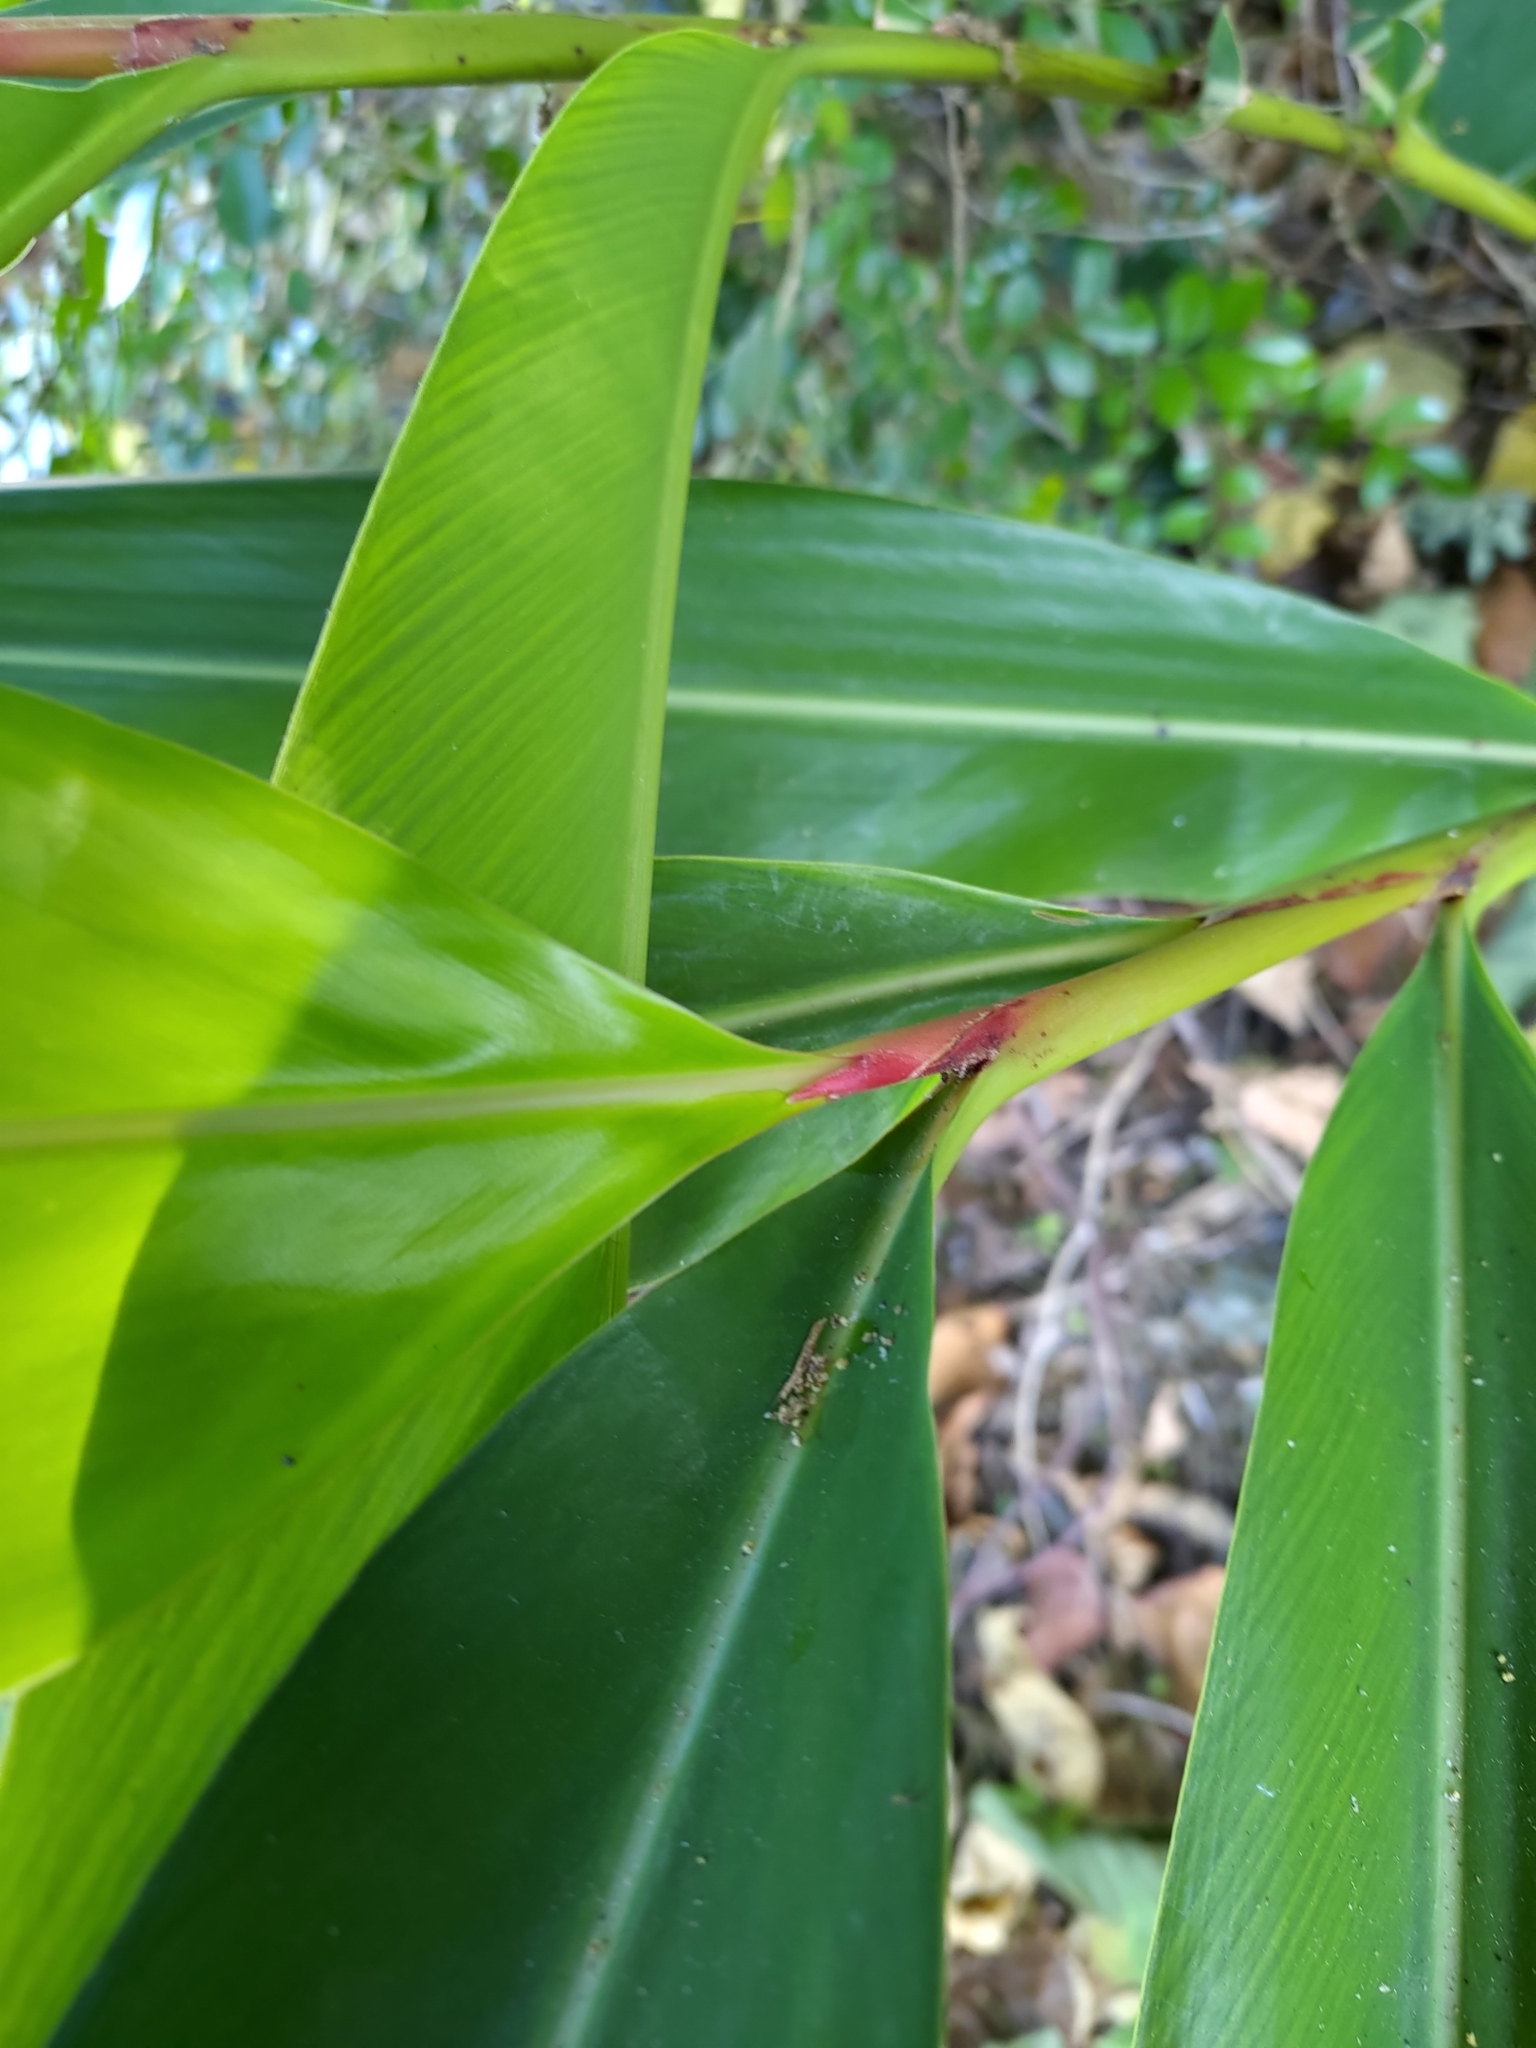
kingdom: Plantae
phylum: Tracheophyta
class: Liliopsida
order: Zingiberales
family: Zingiberaceae
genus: Alpinia
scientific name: Alpinia zerumbet
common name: Shellplant
